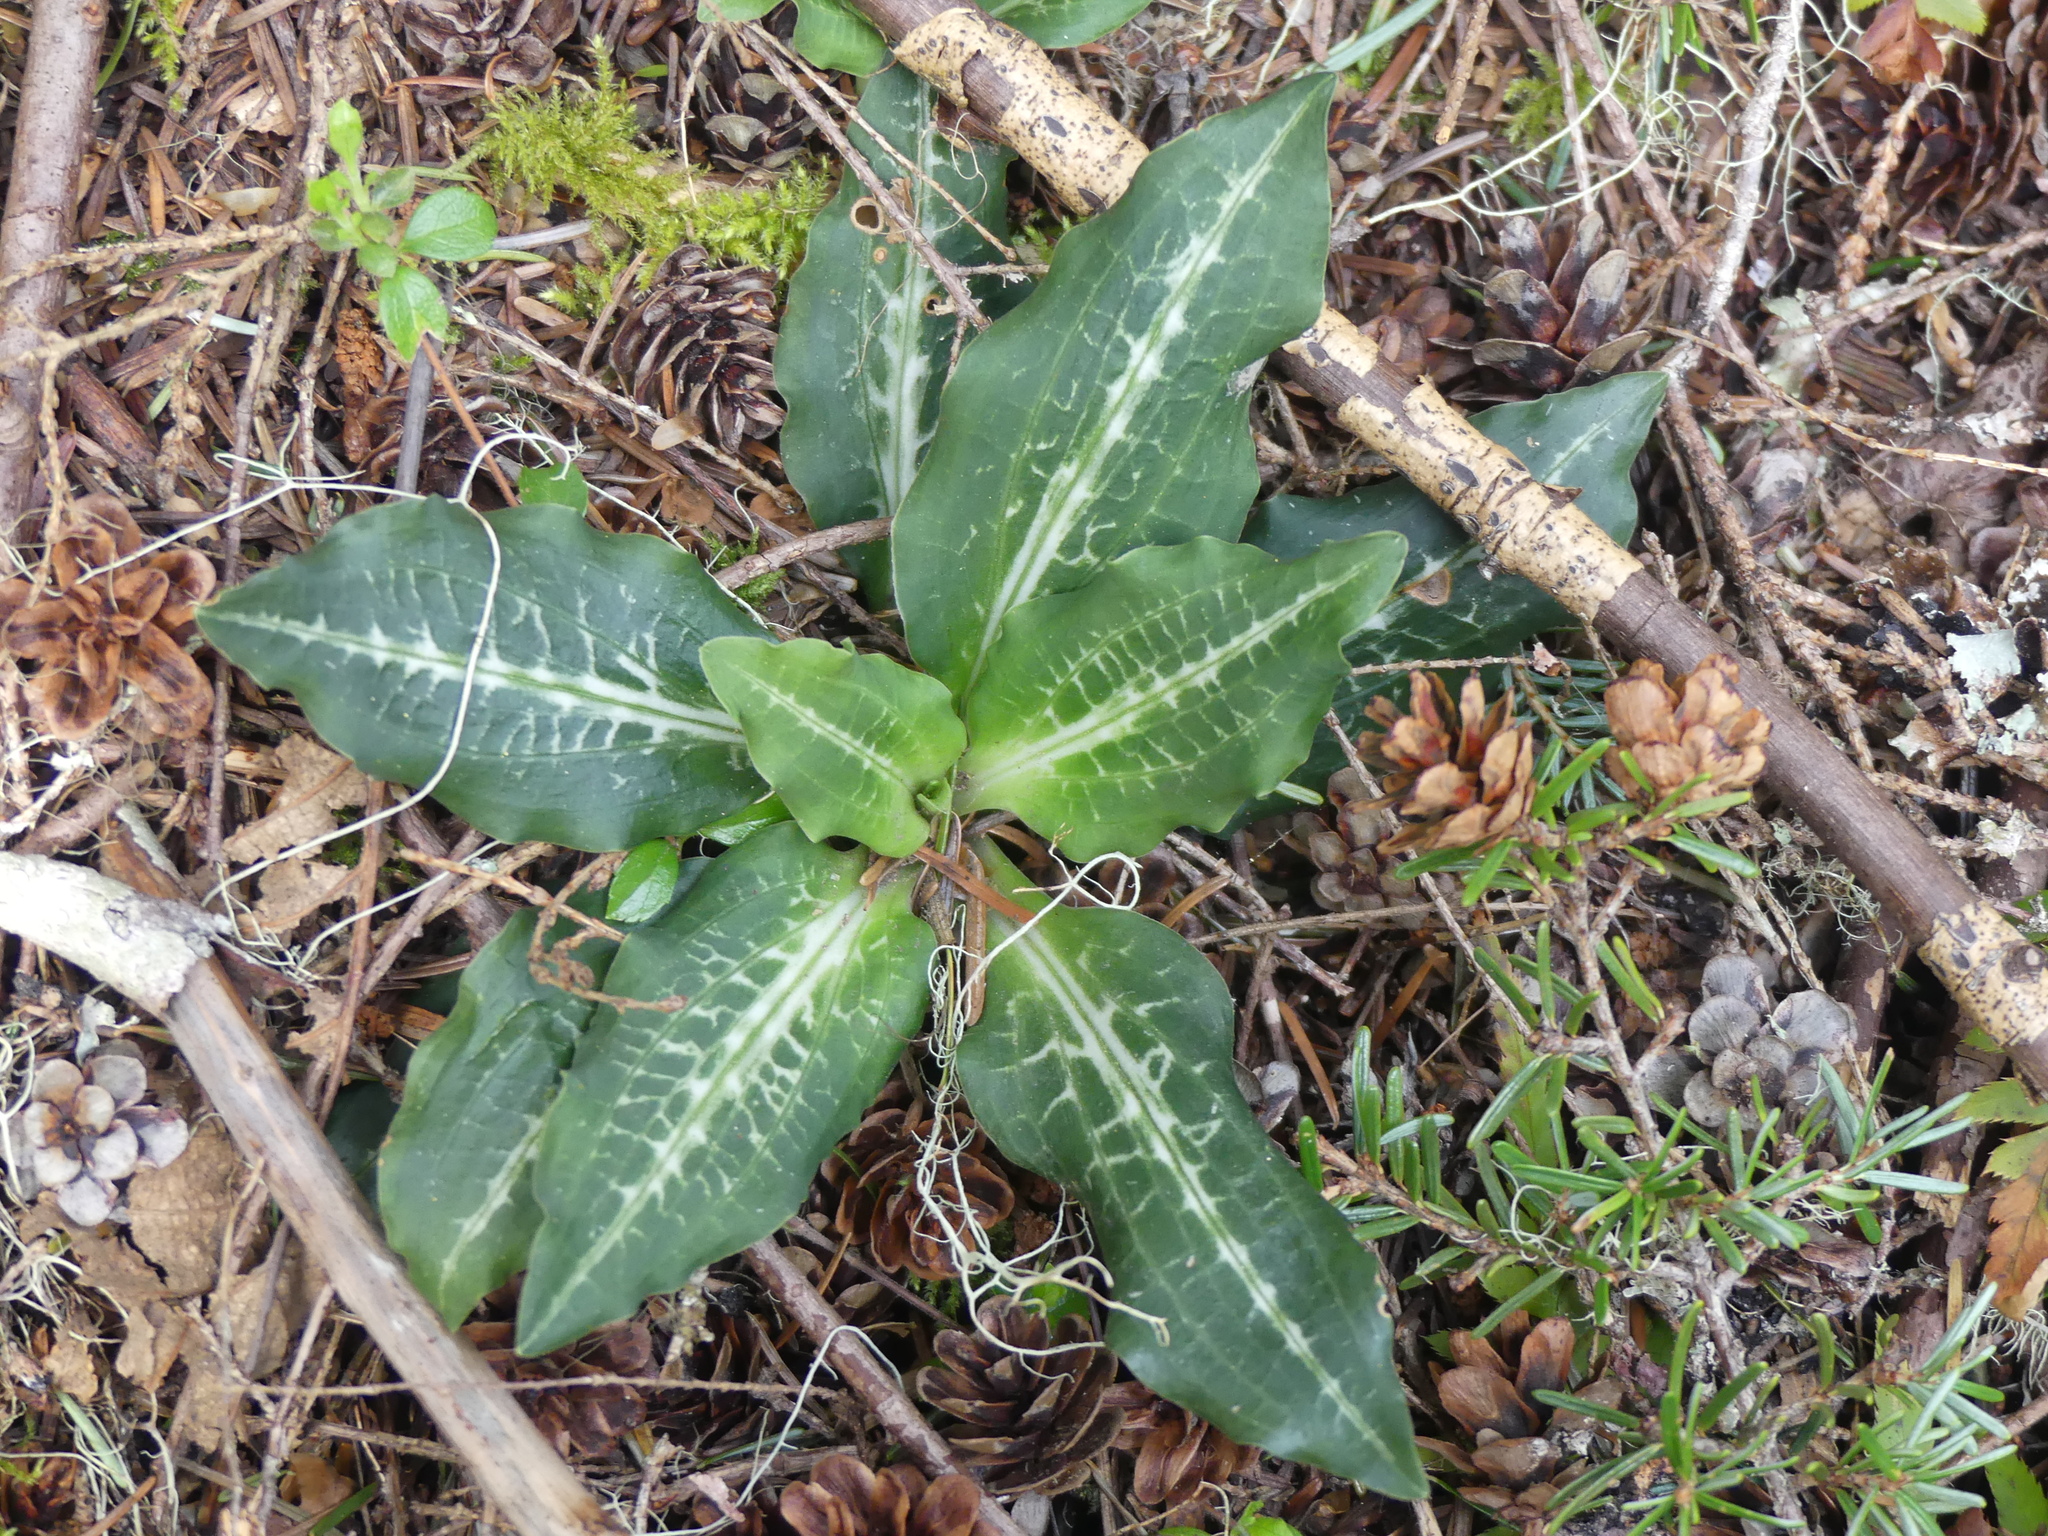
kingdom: Plantae
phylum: Tracheophyta
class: Liliopsida
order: Asparagales
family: Orchidaceae
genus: Goodyera
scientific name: Goodyera oblongifolia
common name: Giant rattlesnake-plantain
